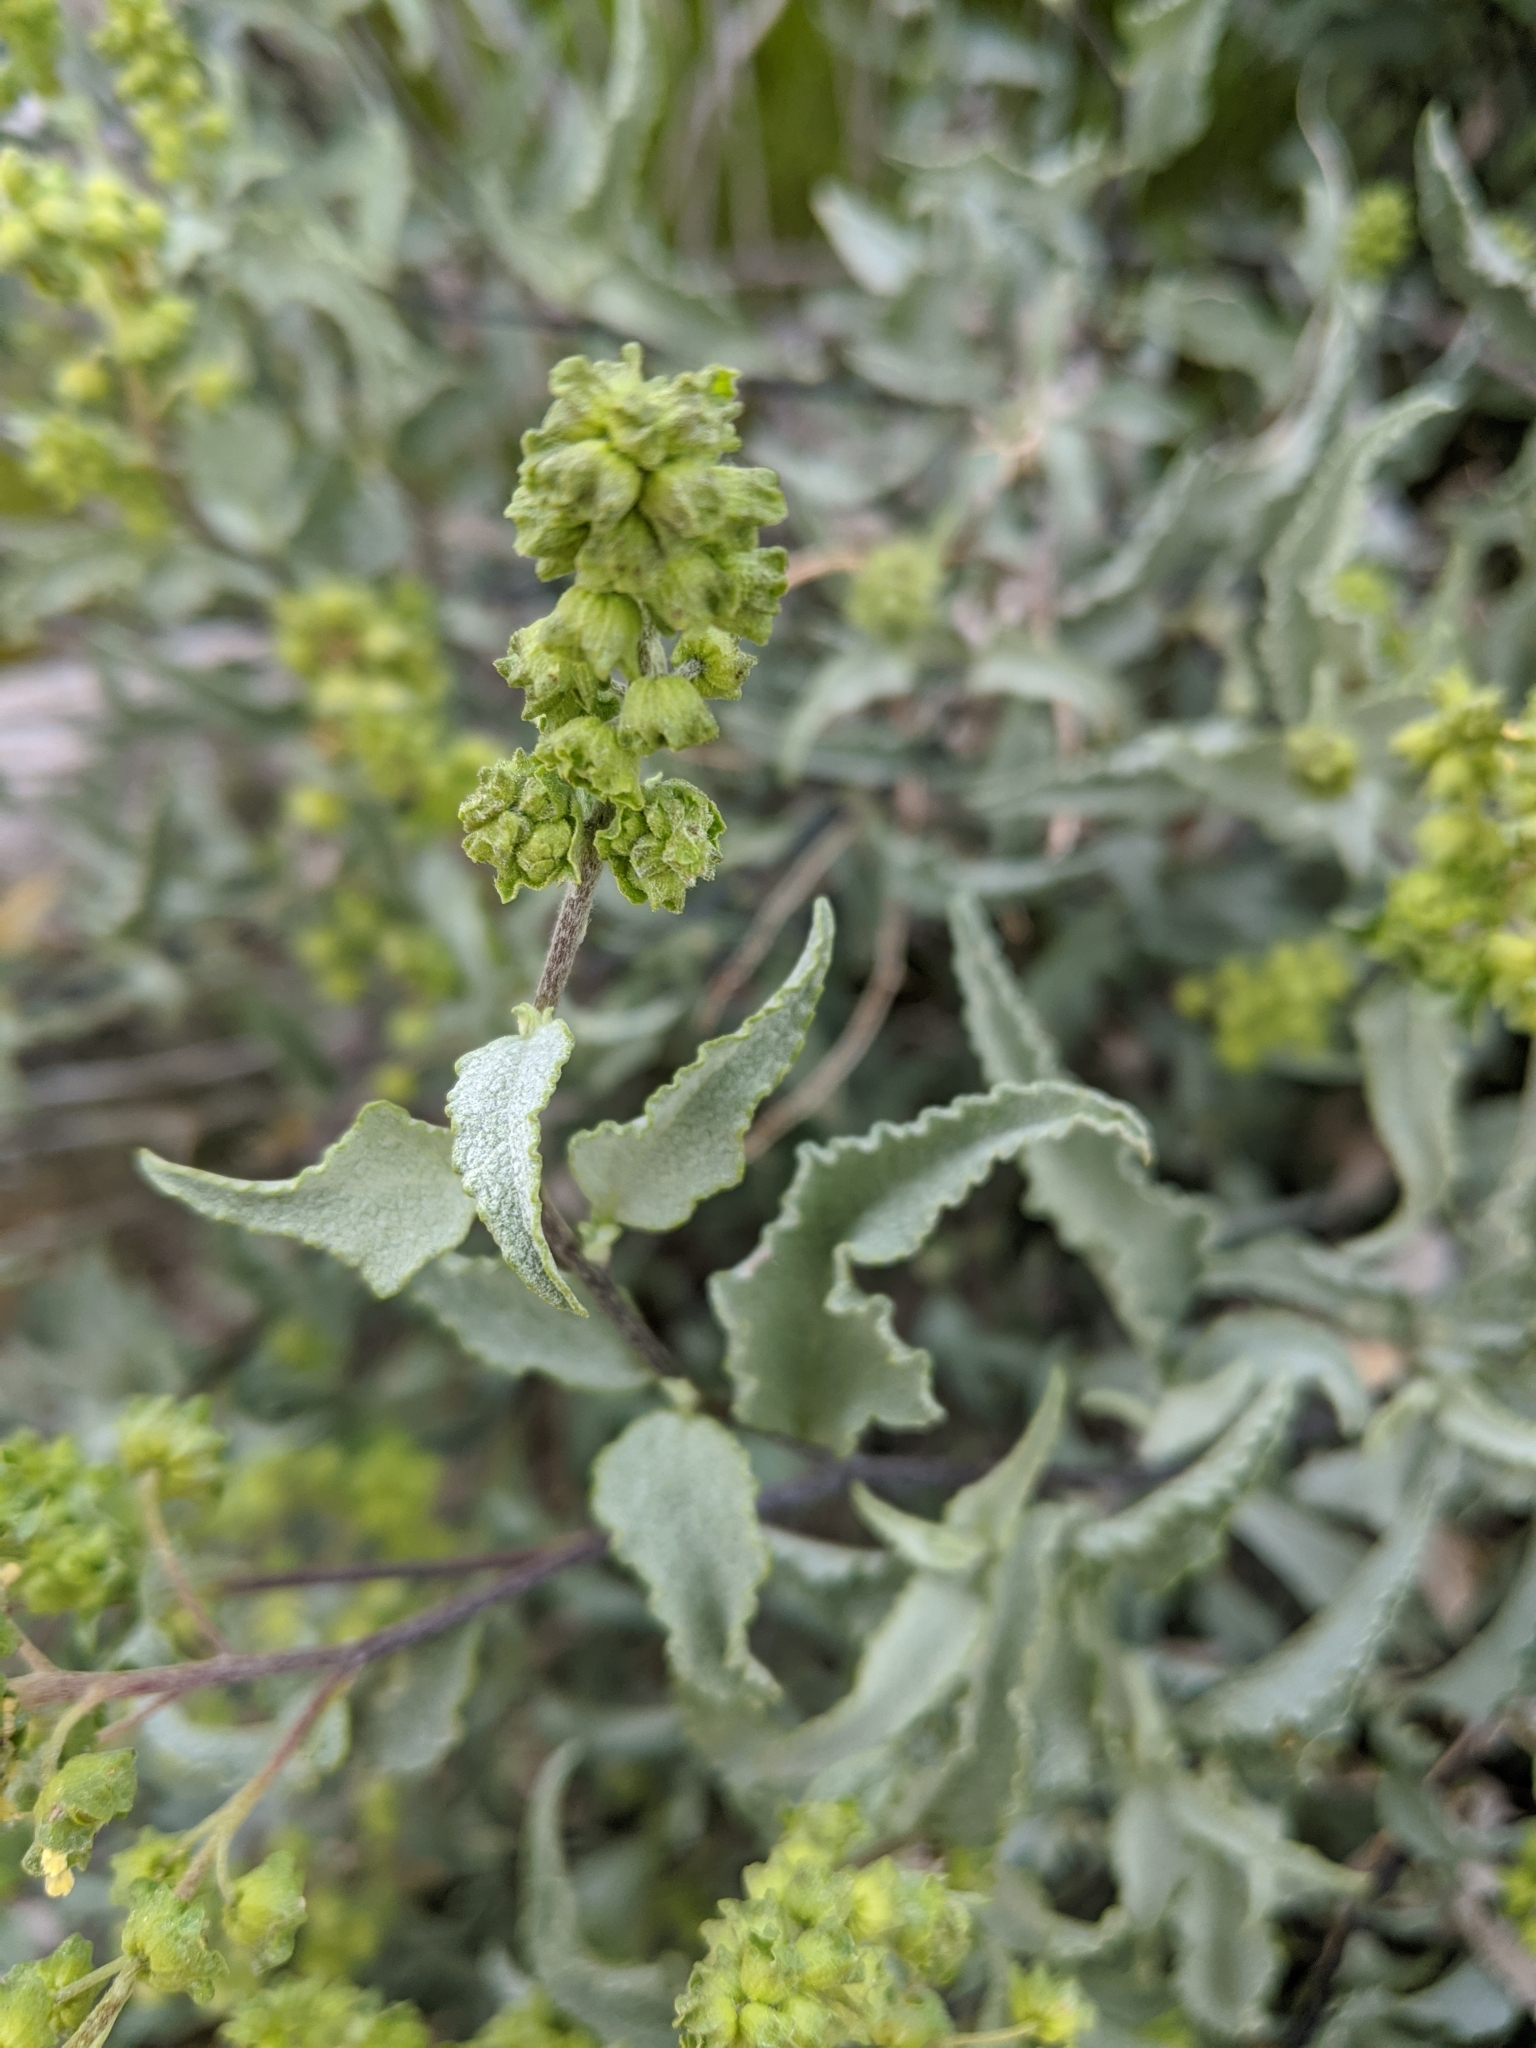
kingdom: Plantae
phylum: Tracheophyta
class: Magnoliopsida
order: Asterales
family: Asteraceae
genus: Ambrosia
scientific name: Ambrosia deltoidea
